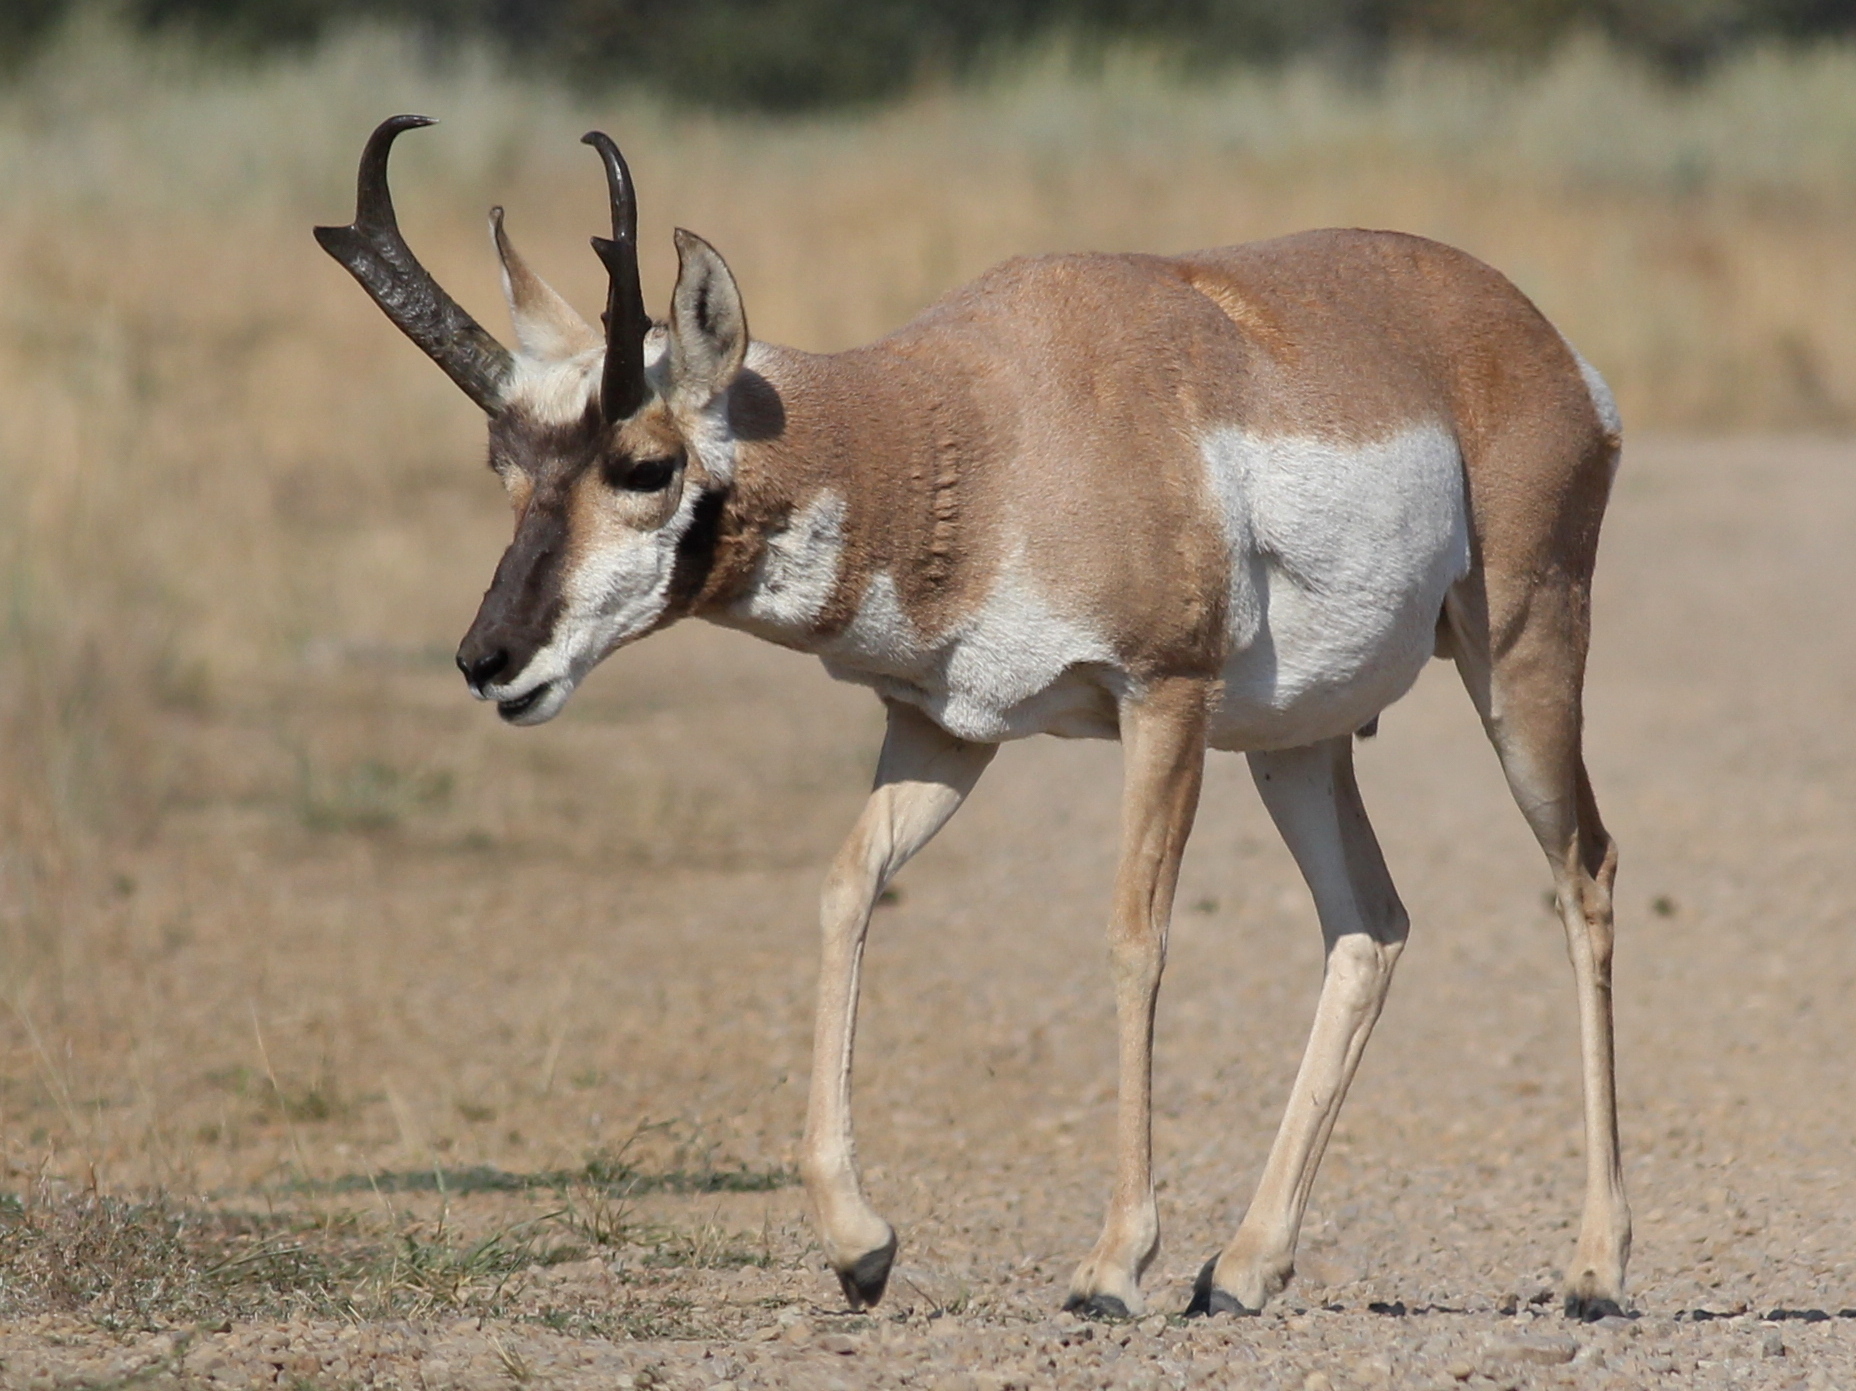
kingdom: Animalia
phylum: Chordata
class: Mammalia
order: Artiodactyla
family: Antilocapridae
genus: Antilocapra
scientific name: Antilocapra americana
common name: Pronghorn
